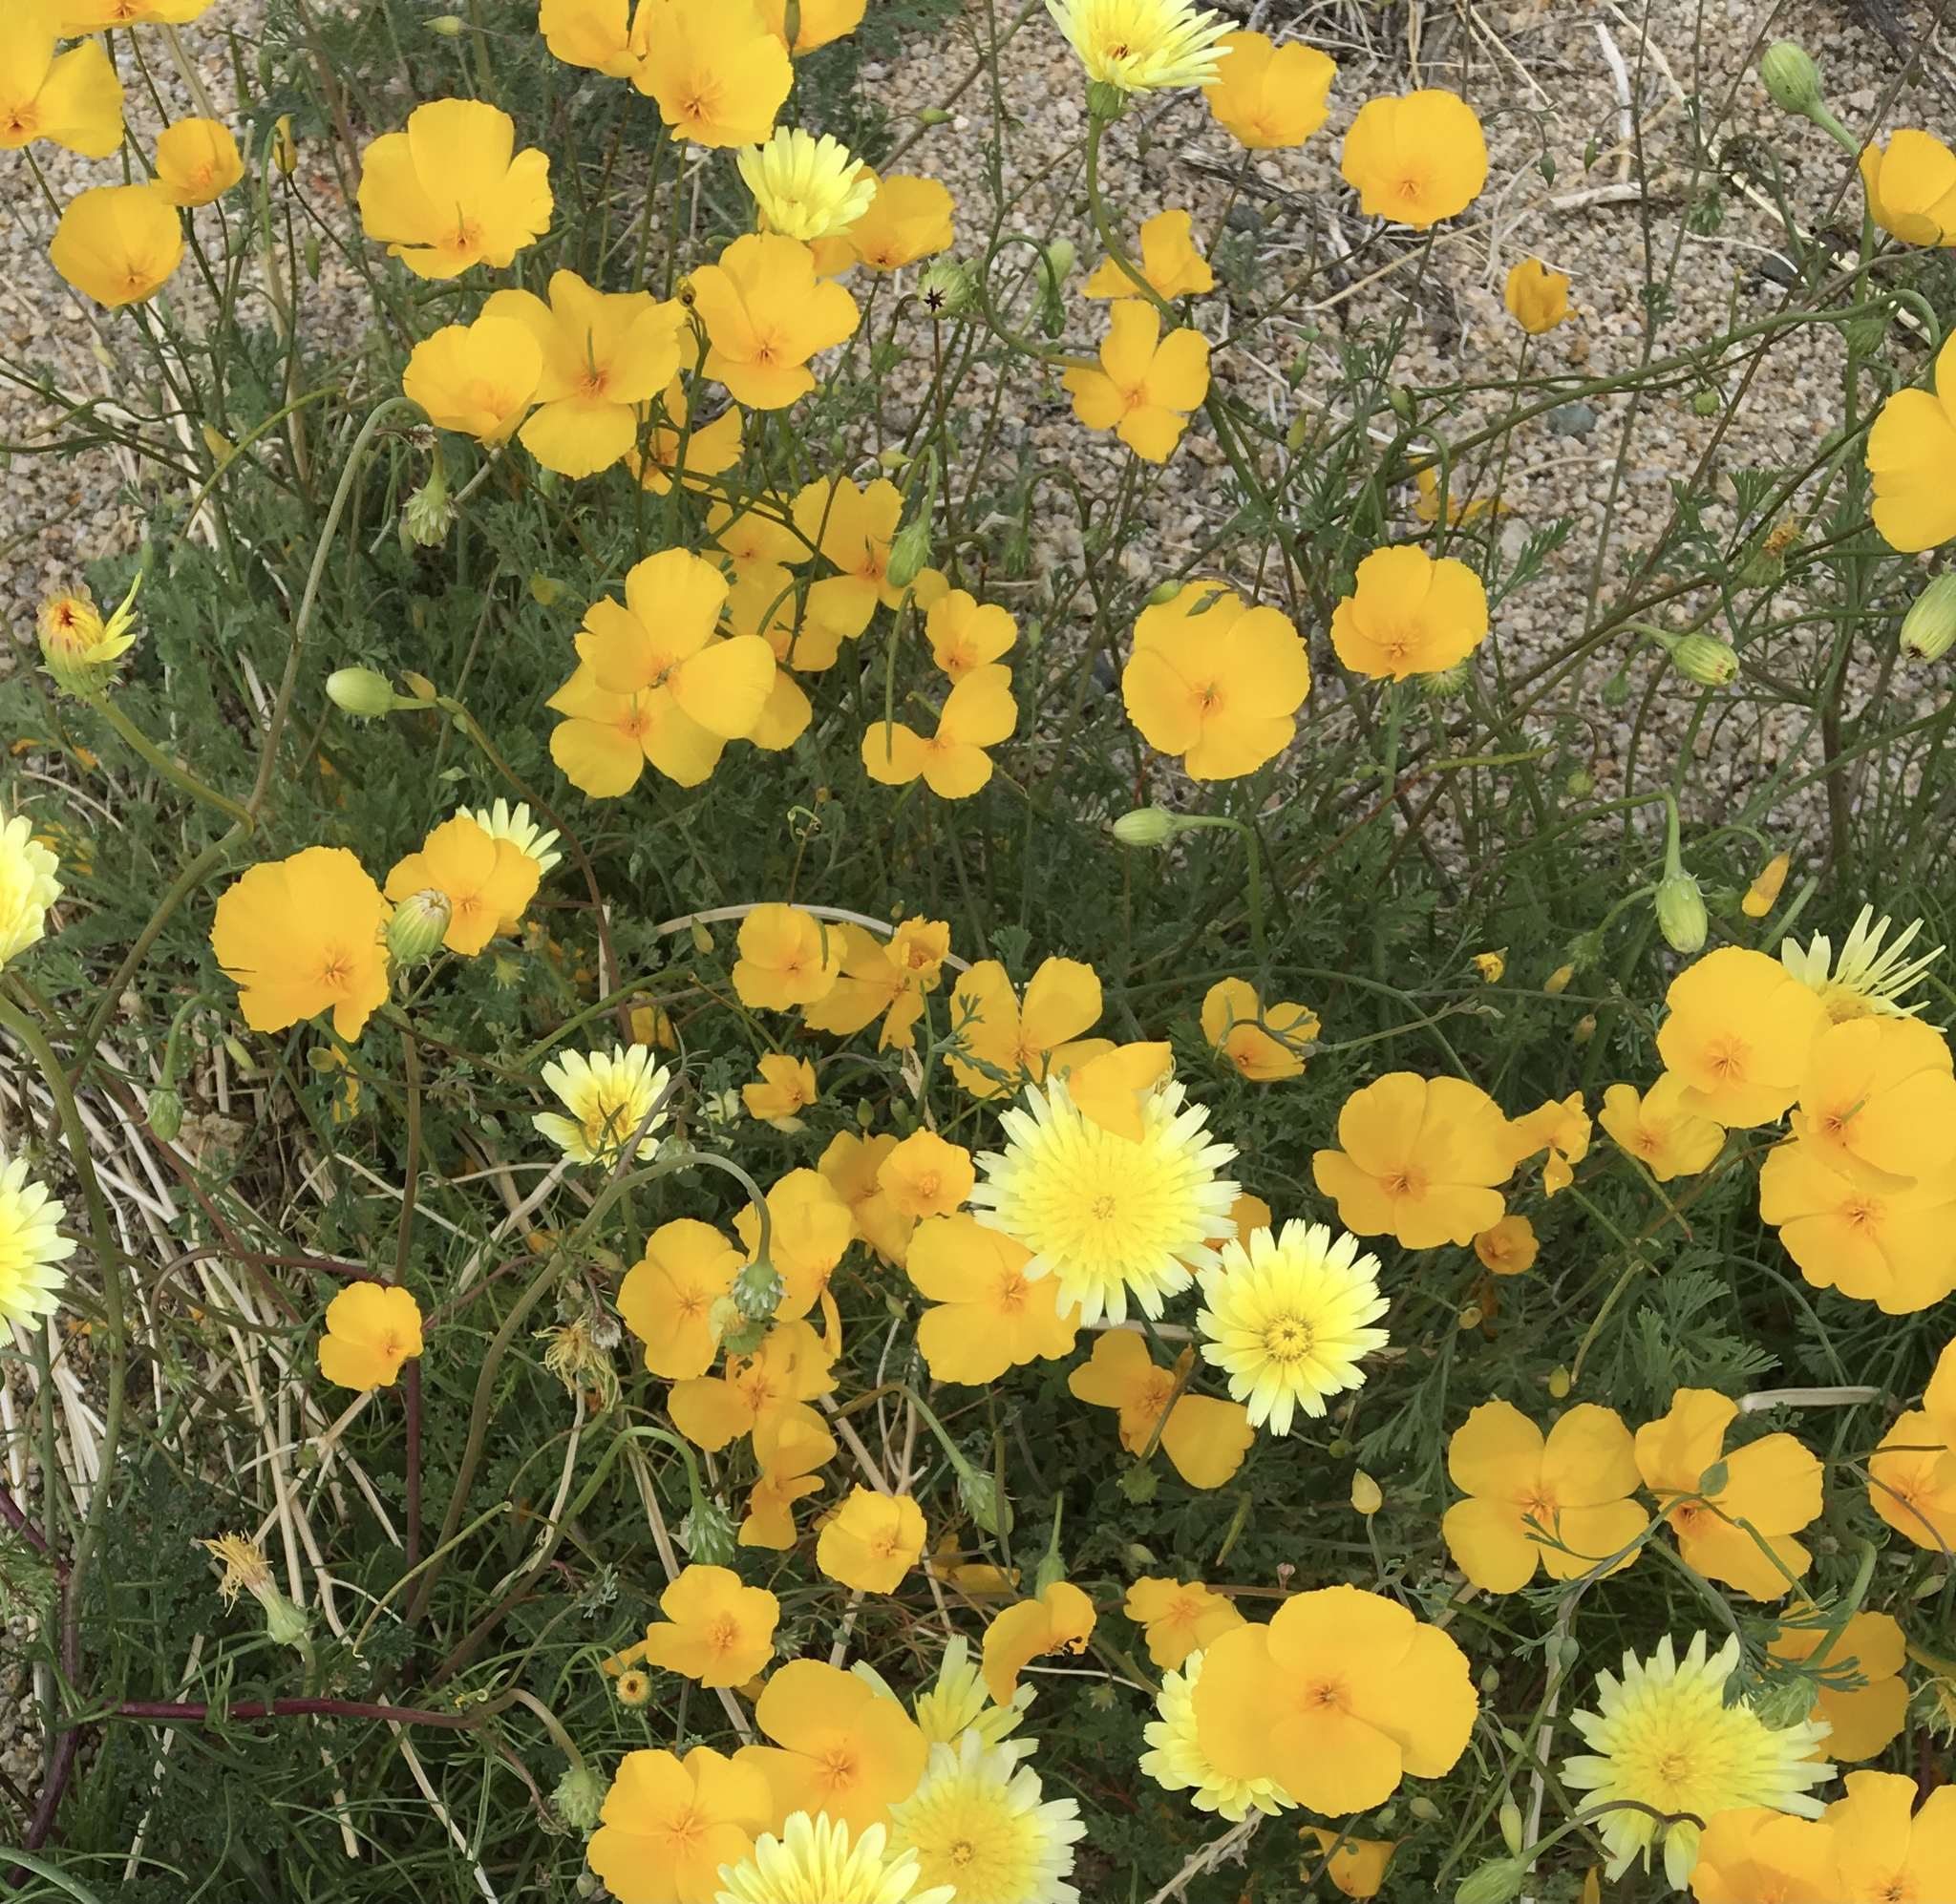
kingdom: Plantae
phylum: Tracheophyta
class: Magnoliopsida
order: Ranunculales
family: Papaveraceae
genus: Eschscholzia
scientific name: Eschscholzia parishii
